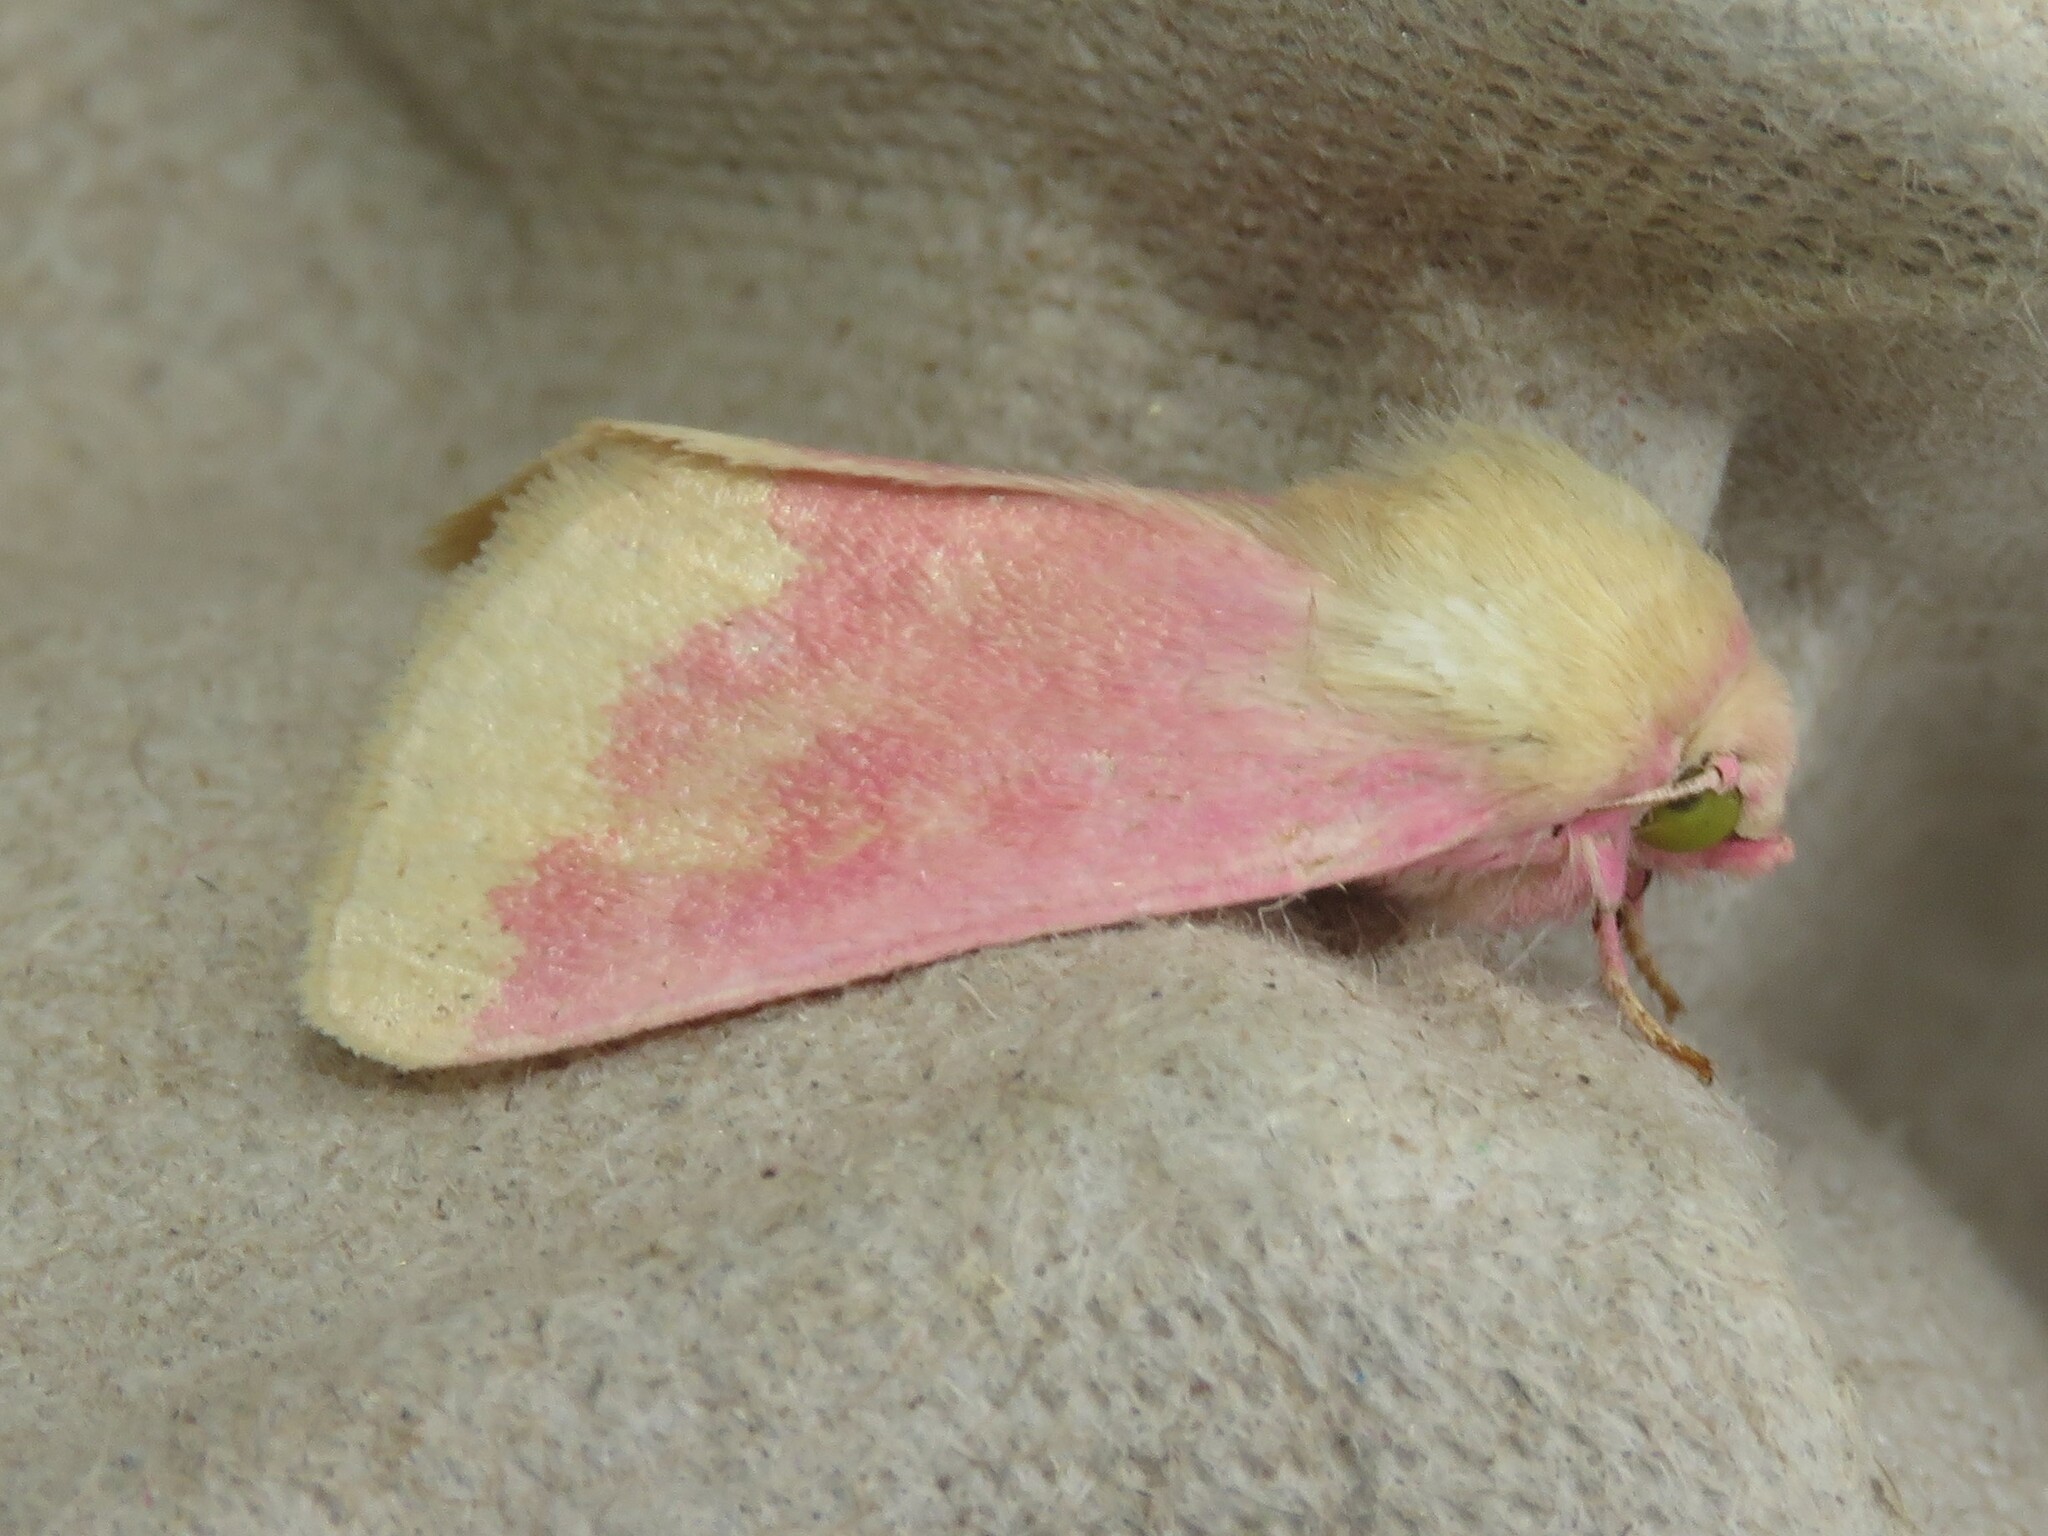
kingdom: Animalia
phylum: Arthropoda
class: Insecta
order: Lepidoptera
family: Noctuidae
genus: Schinia
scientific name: Schinia florida
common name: Primrose moth
